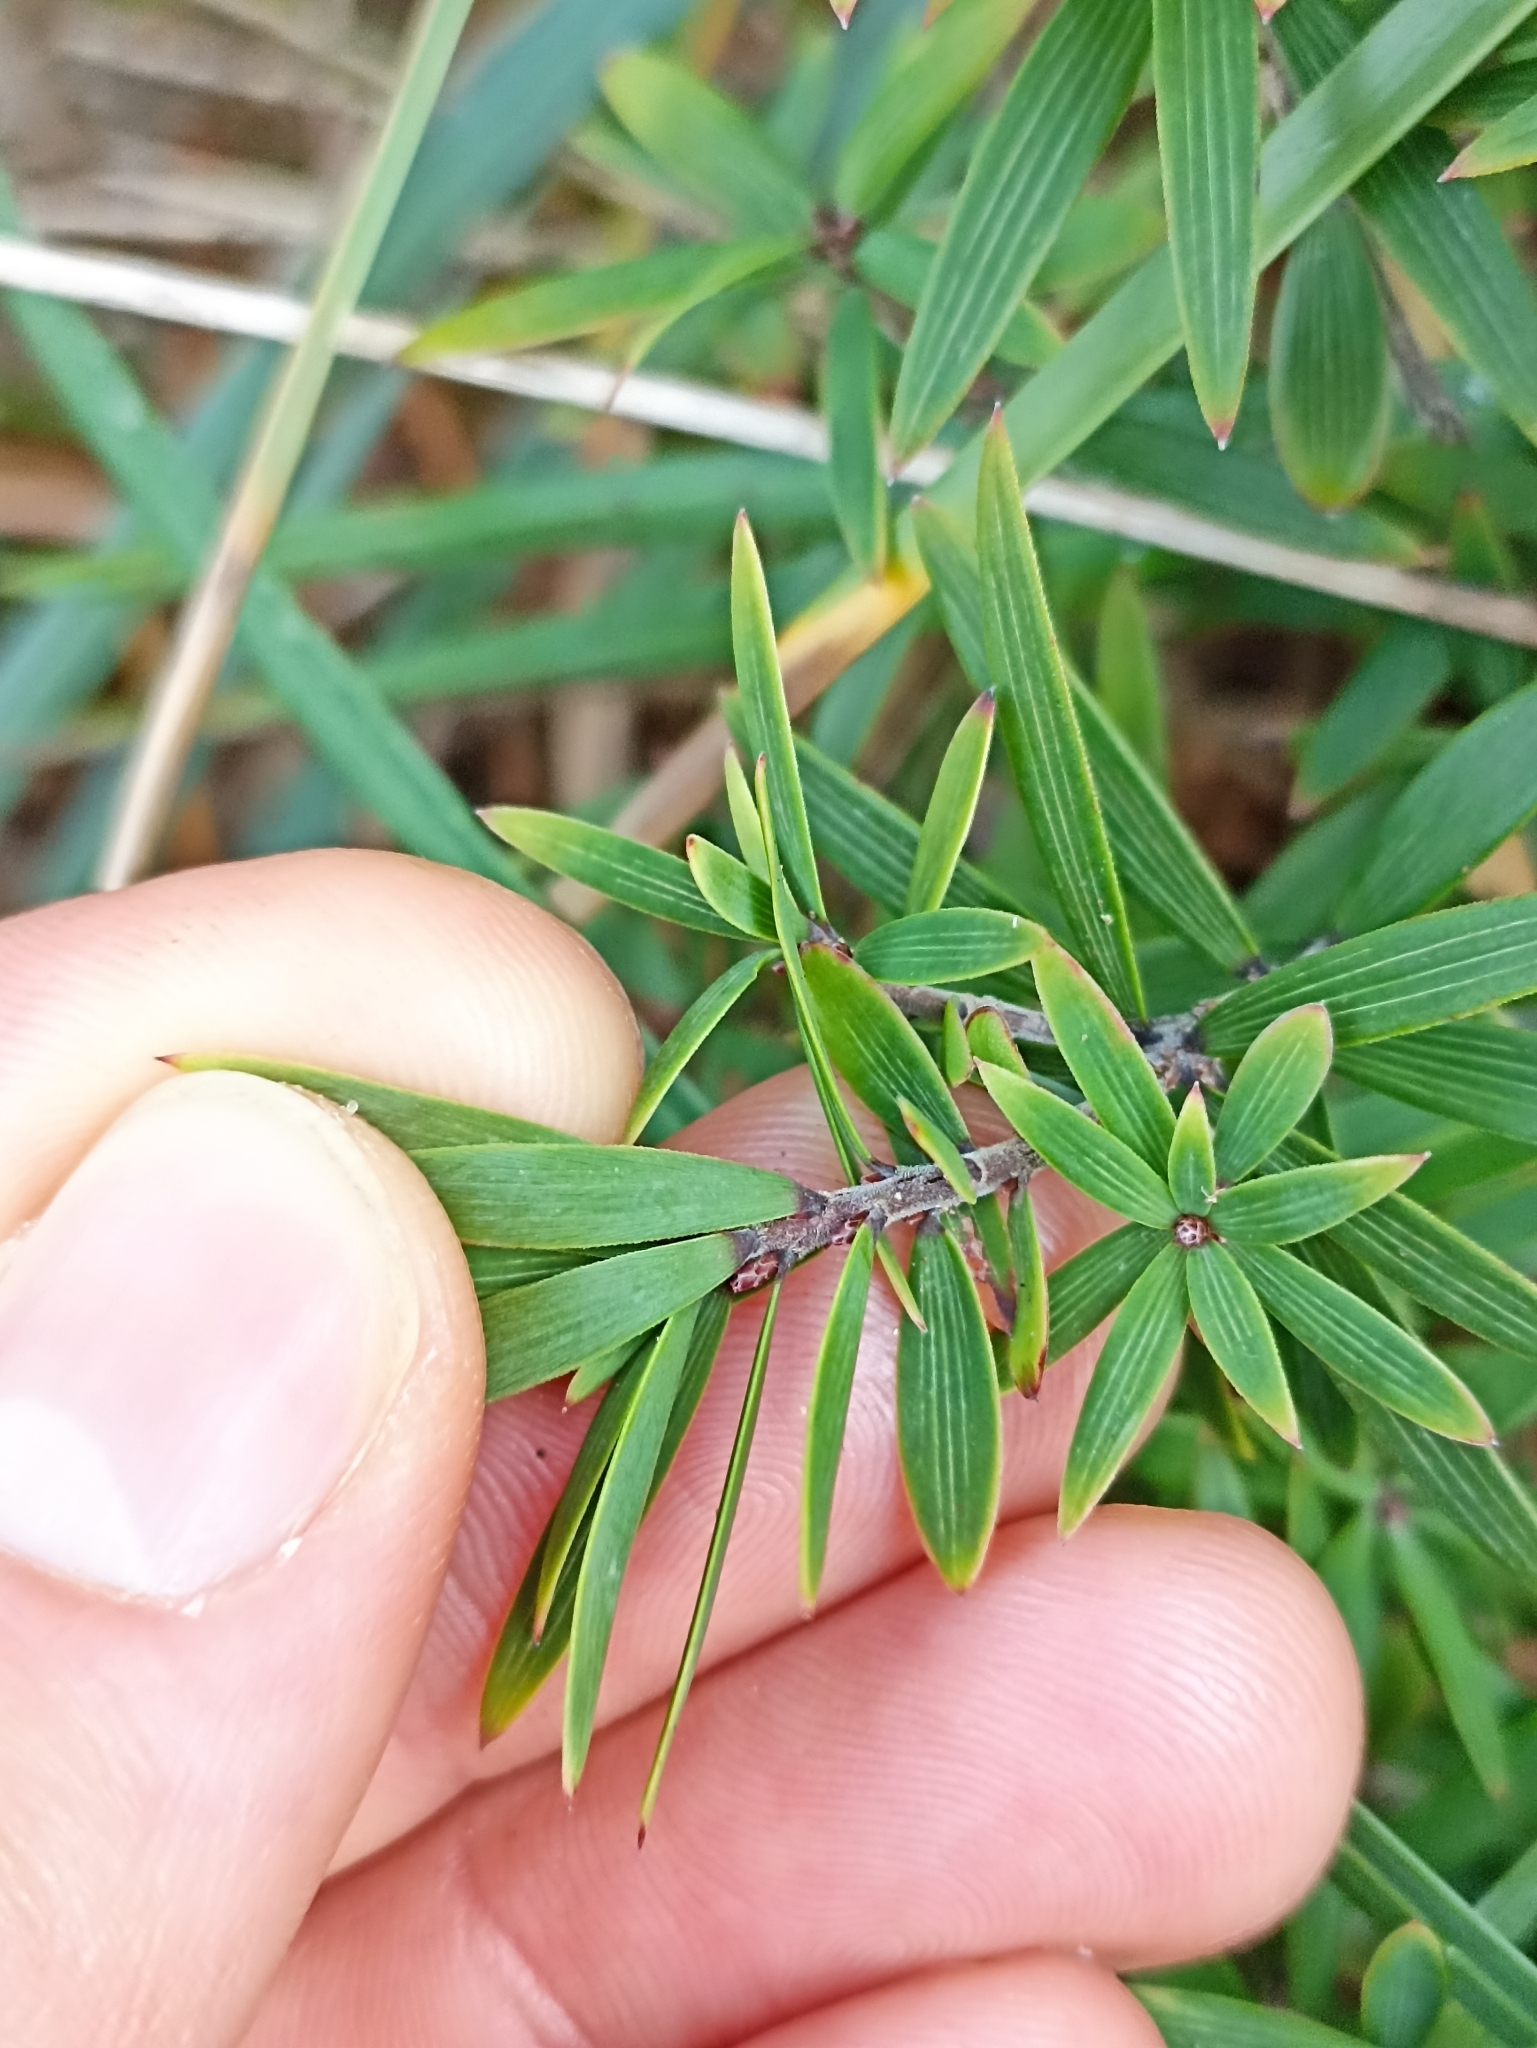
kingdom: Plantae
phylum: Tracheophyta
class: Magnoliopsida
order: Ericales
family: Ericaceae
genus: Leucopogon
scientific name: Leucopogon fasciculatus
